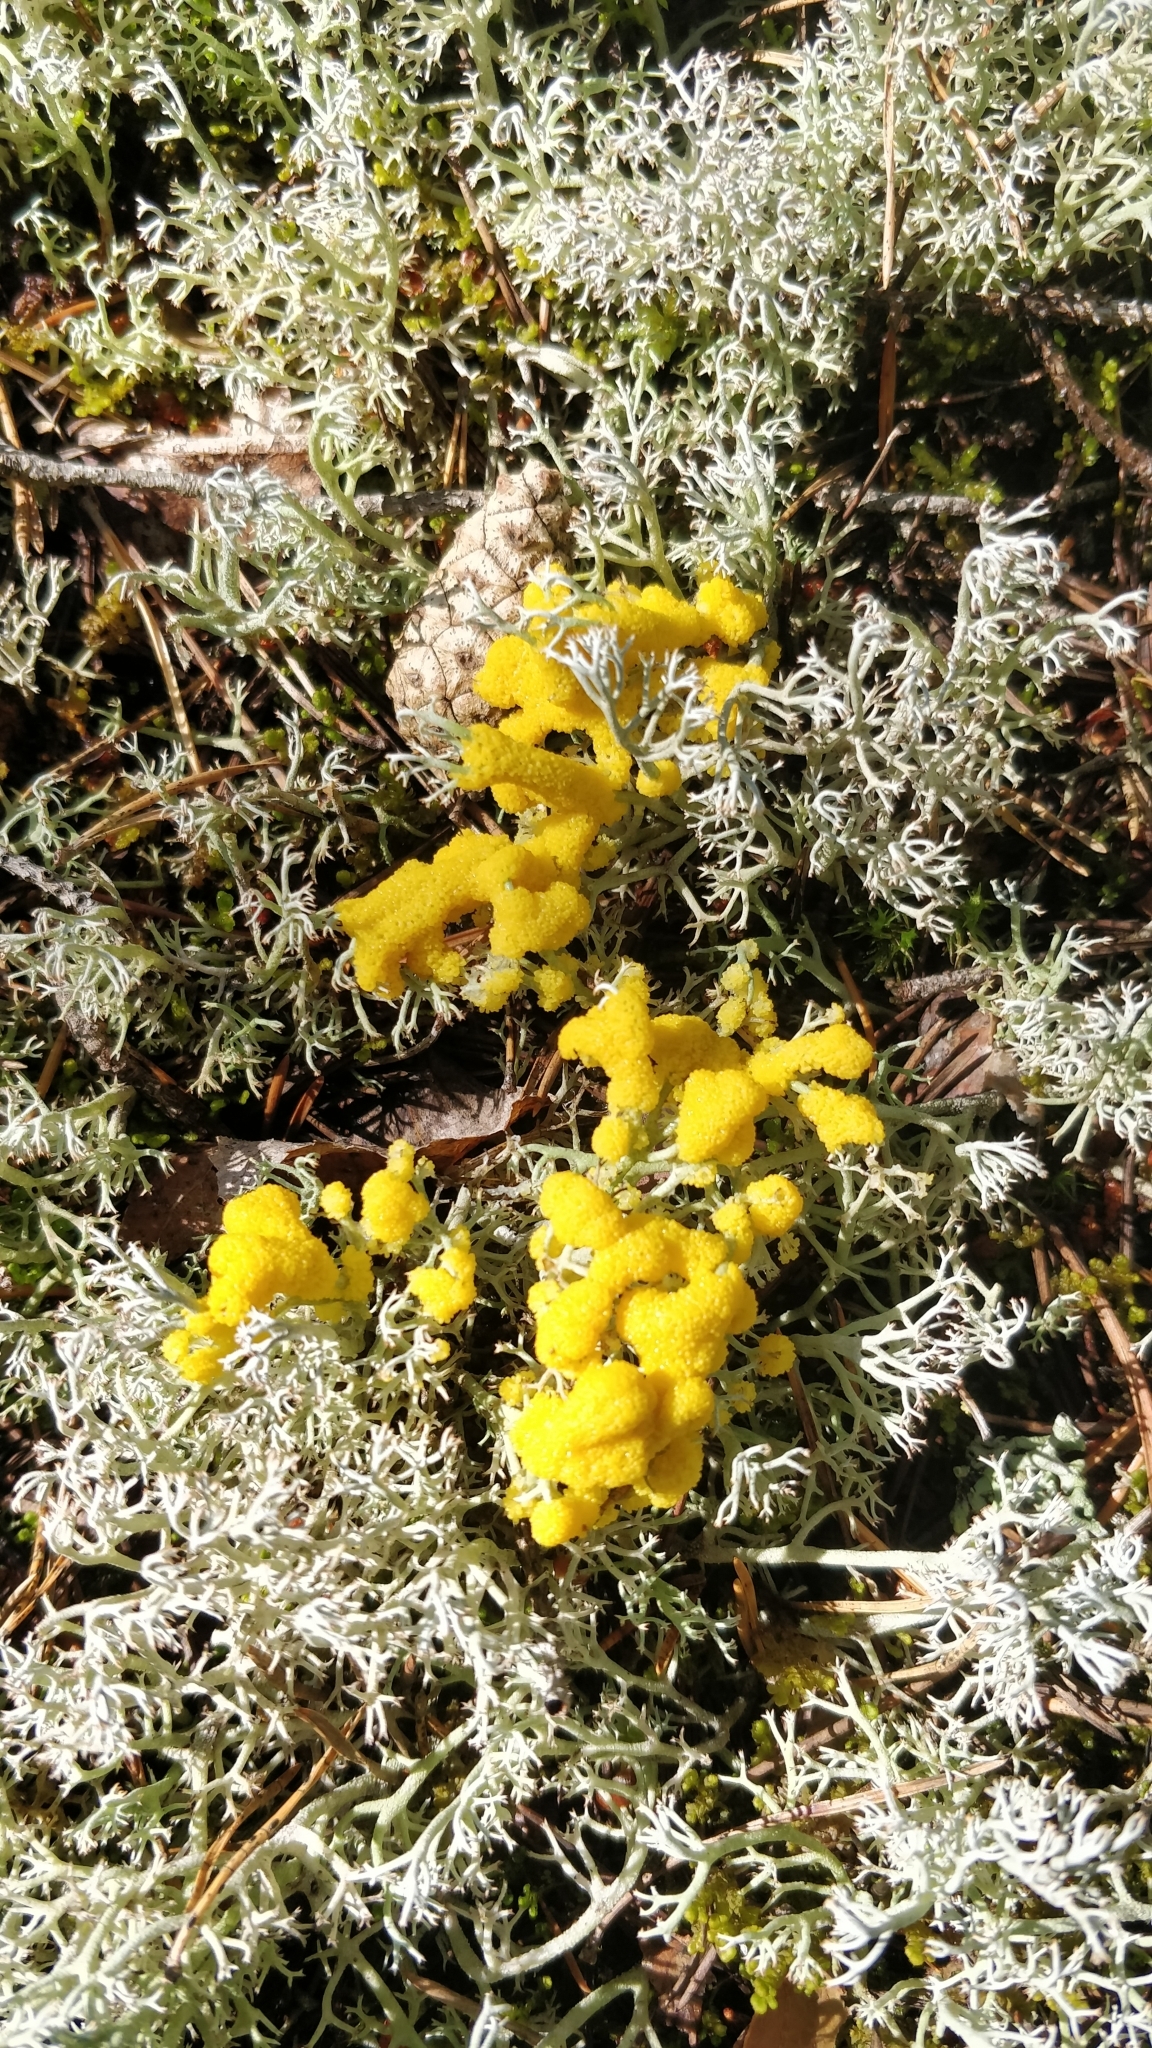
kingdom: Protozoa
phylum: Mycetozoa
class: Myxomycetes
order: Physarales
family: Physaraceae
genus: Fuligo
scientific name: Fuligo septica
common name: Dog vomit slime mold
